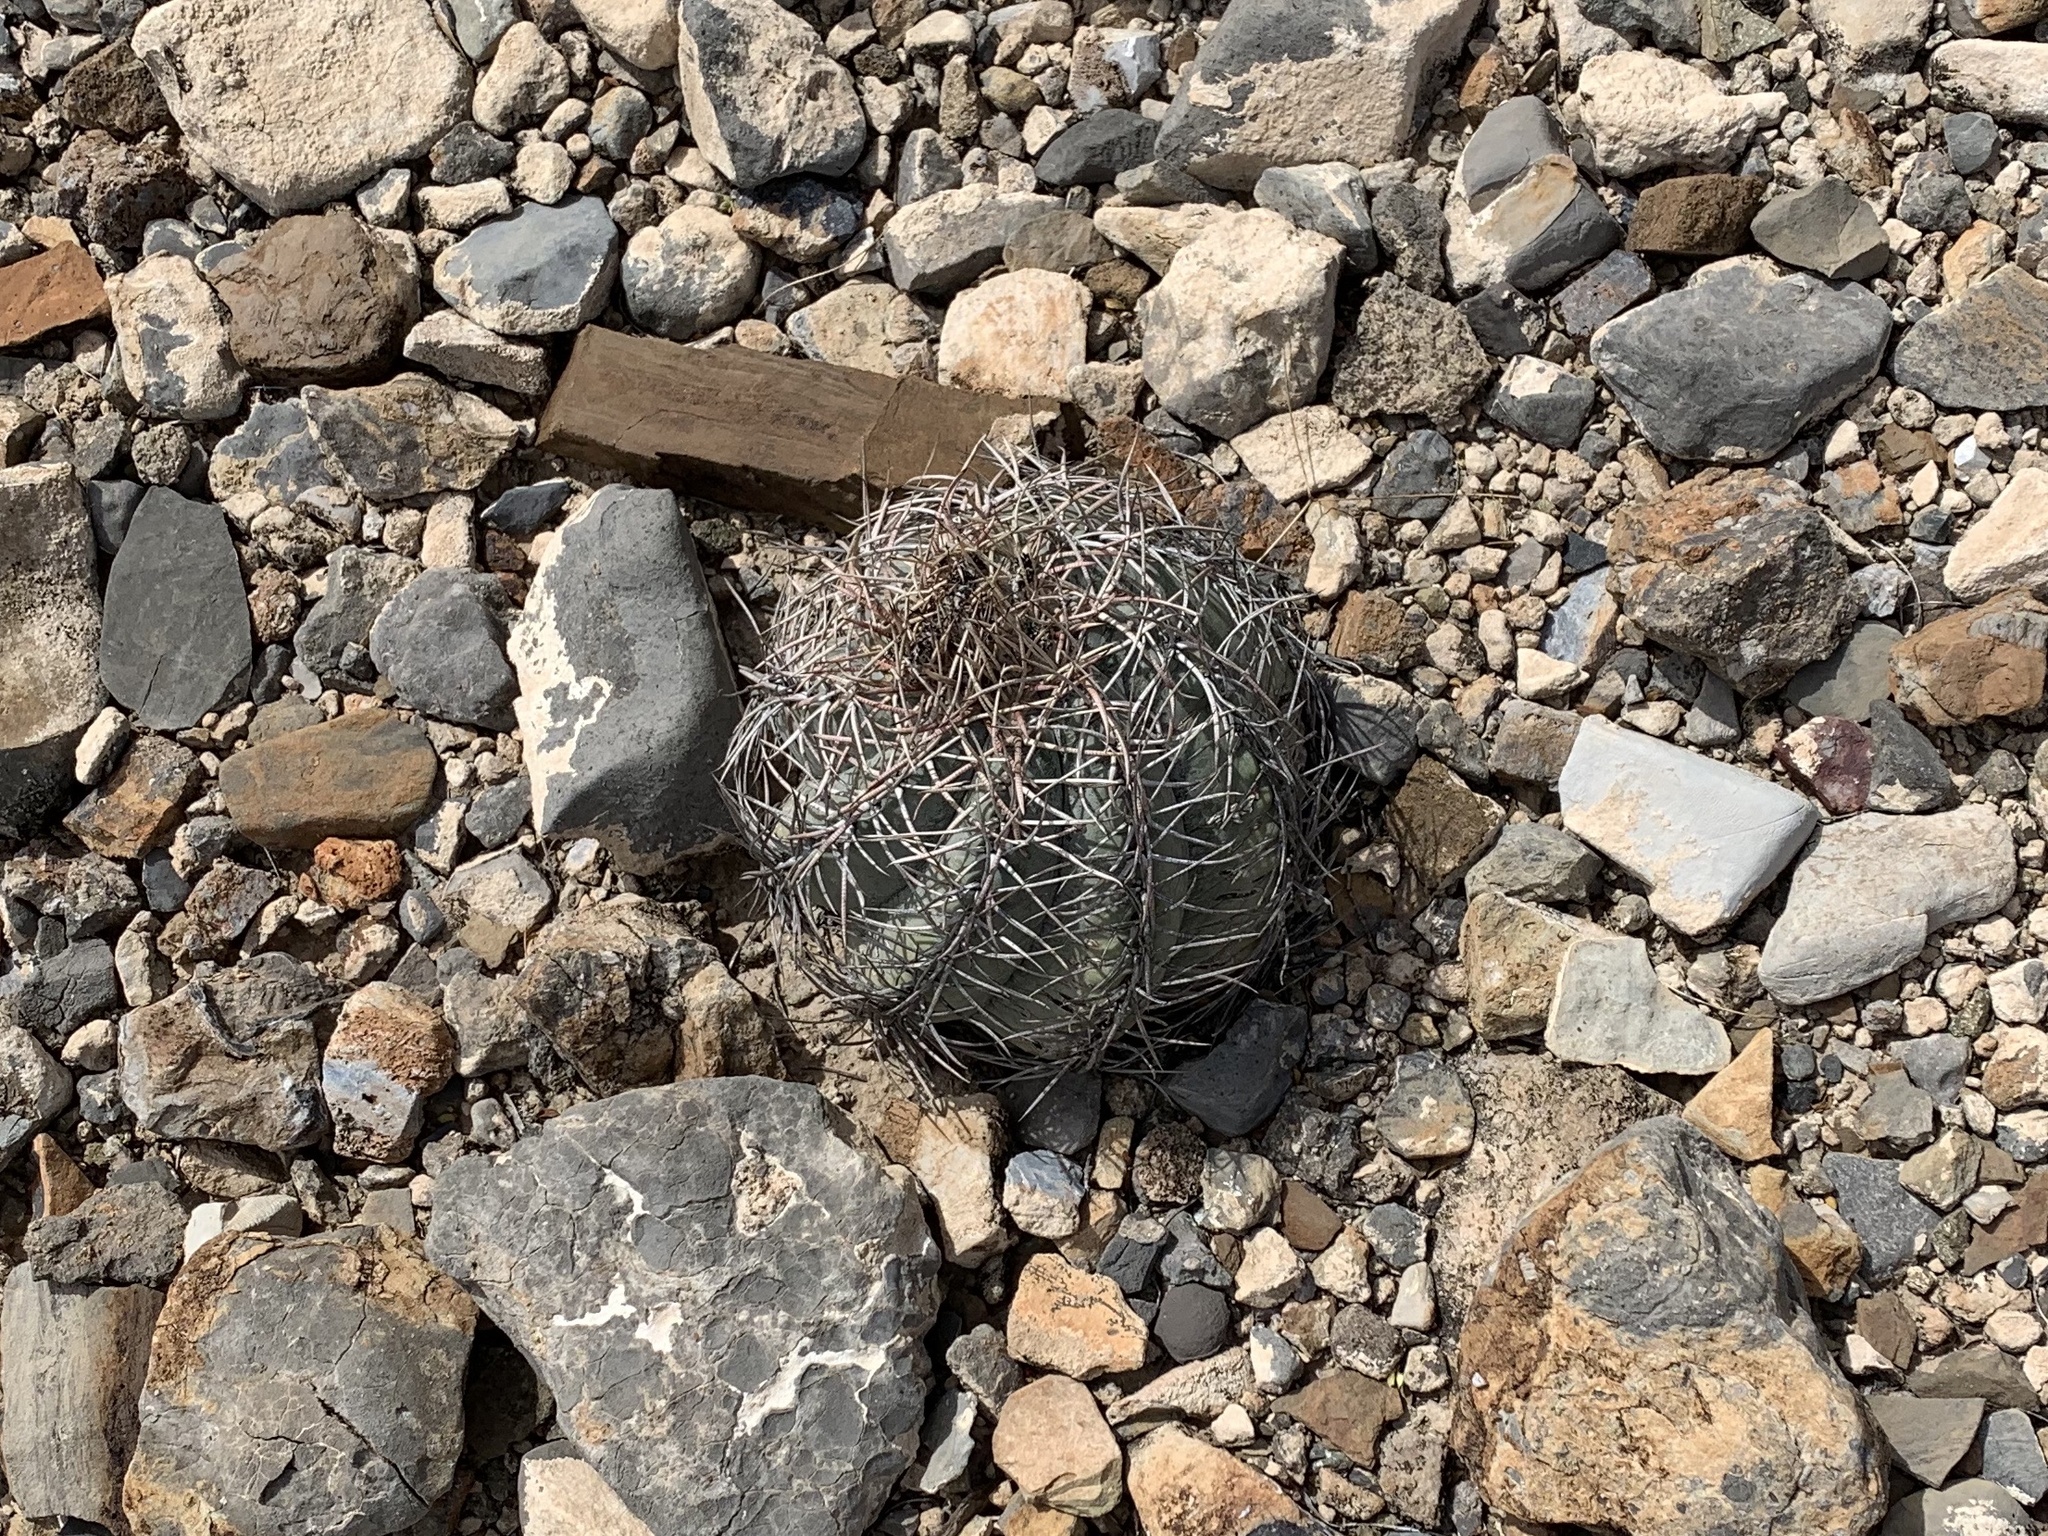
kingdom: Plantae
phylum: Tracheophyta
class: Magnoliopsida
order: Caryophyllales
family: Cactaceae
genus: Echinocactus
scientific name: Echinocactus horizonthalonius
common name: Devilshead
